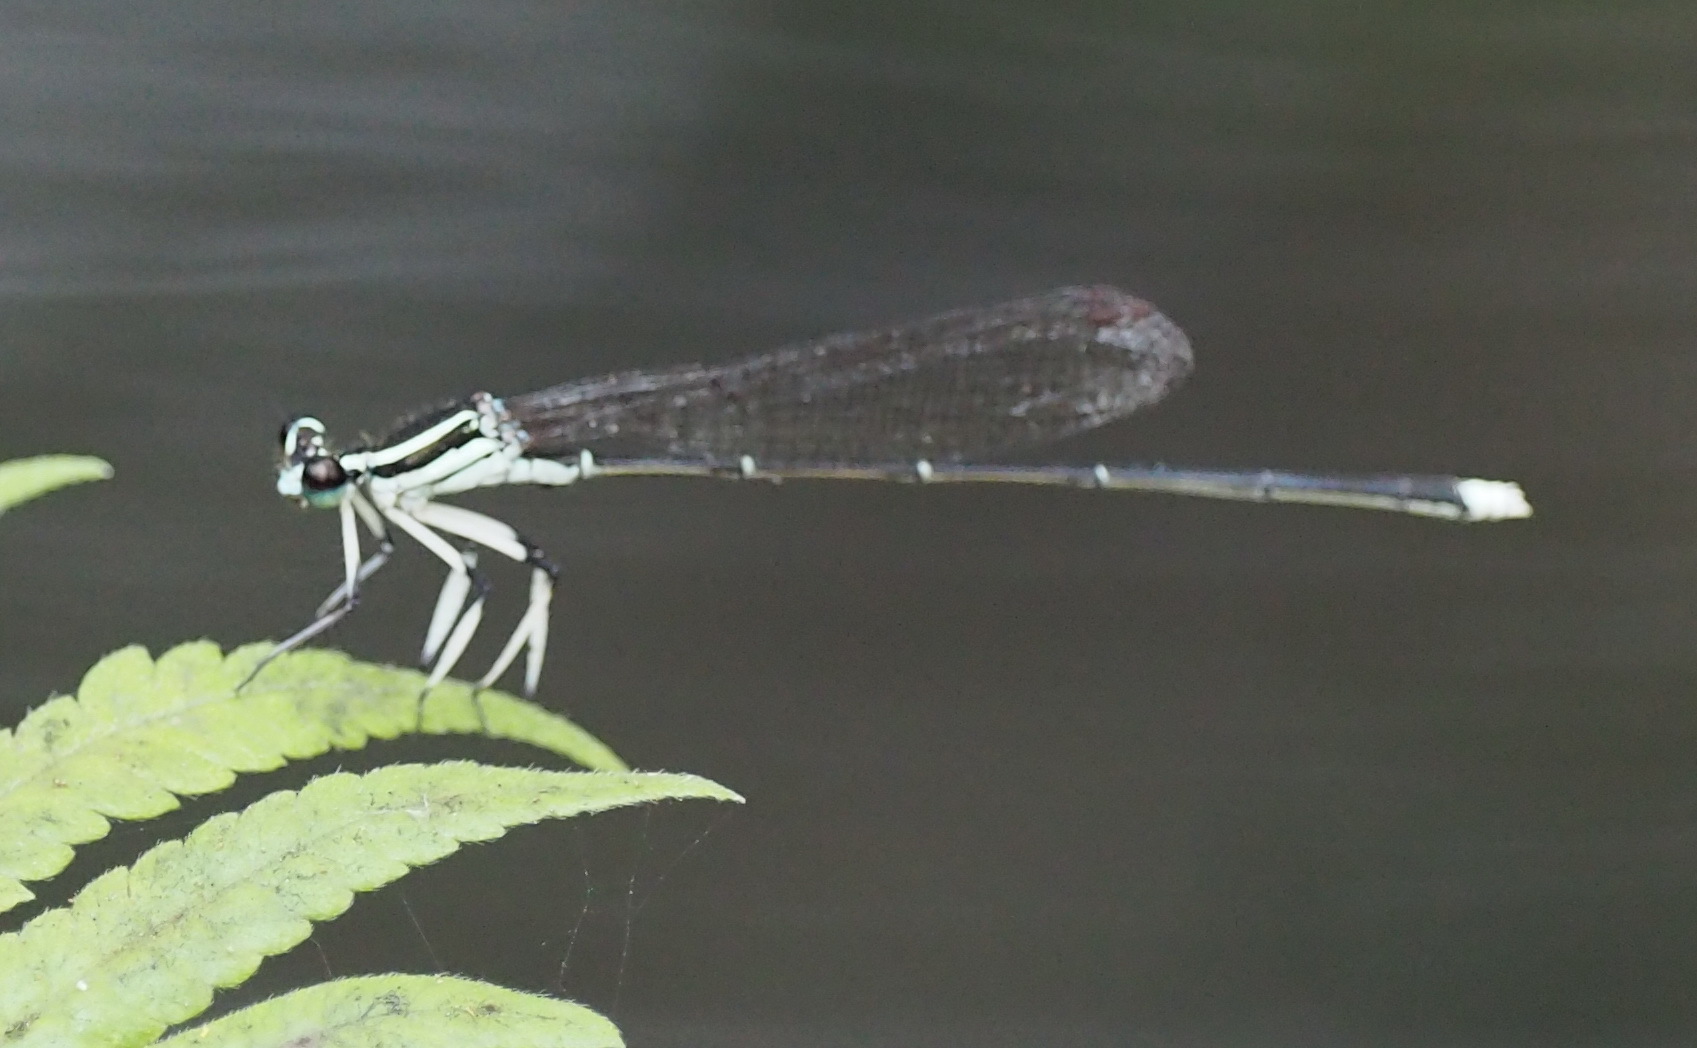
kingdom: Animalia
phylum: Arthropoda
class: Insecta
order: Odonata
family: Platycnemididae
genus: Pseudocopera
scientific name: Pseudocopera ciliata
